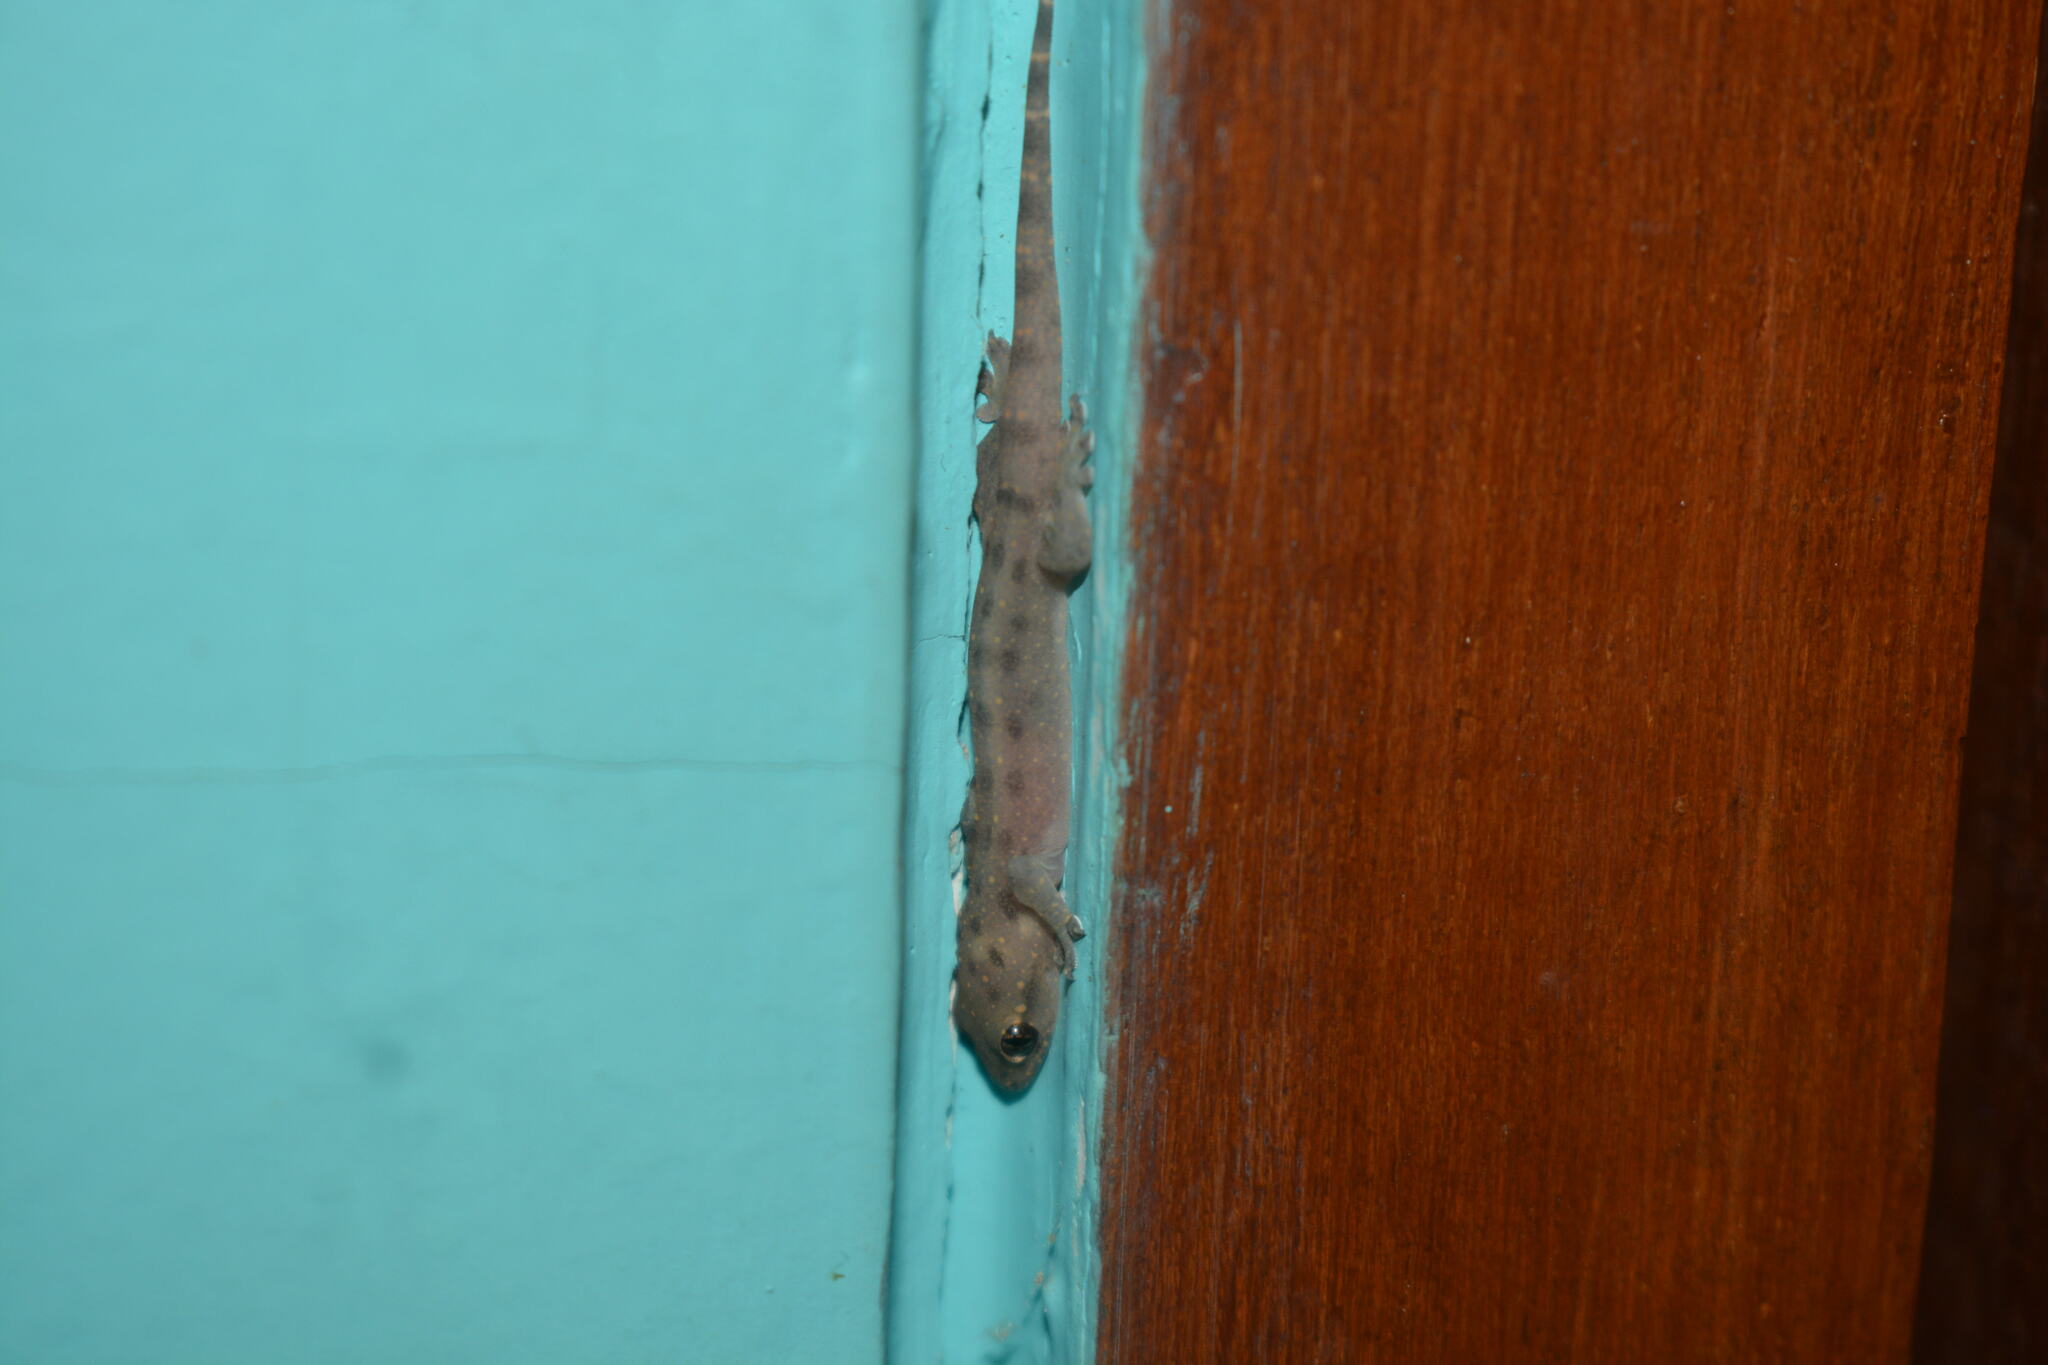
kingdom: Animalia
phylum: Chordata
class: Squamata
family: Gekkonidae
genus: Gehyra
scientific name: Gehyra mutilata
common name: Stump-toed gecko
